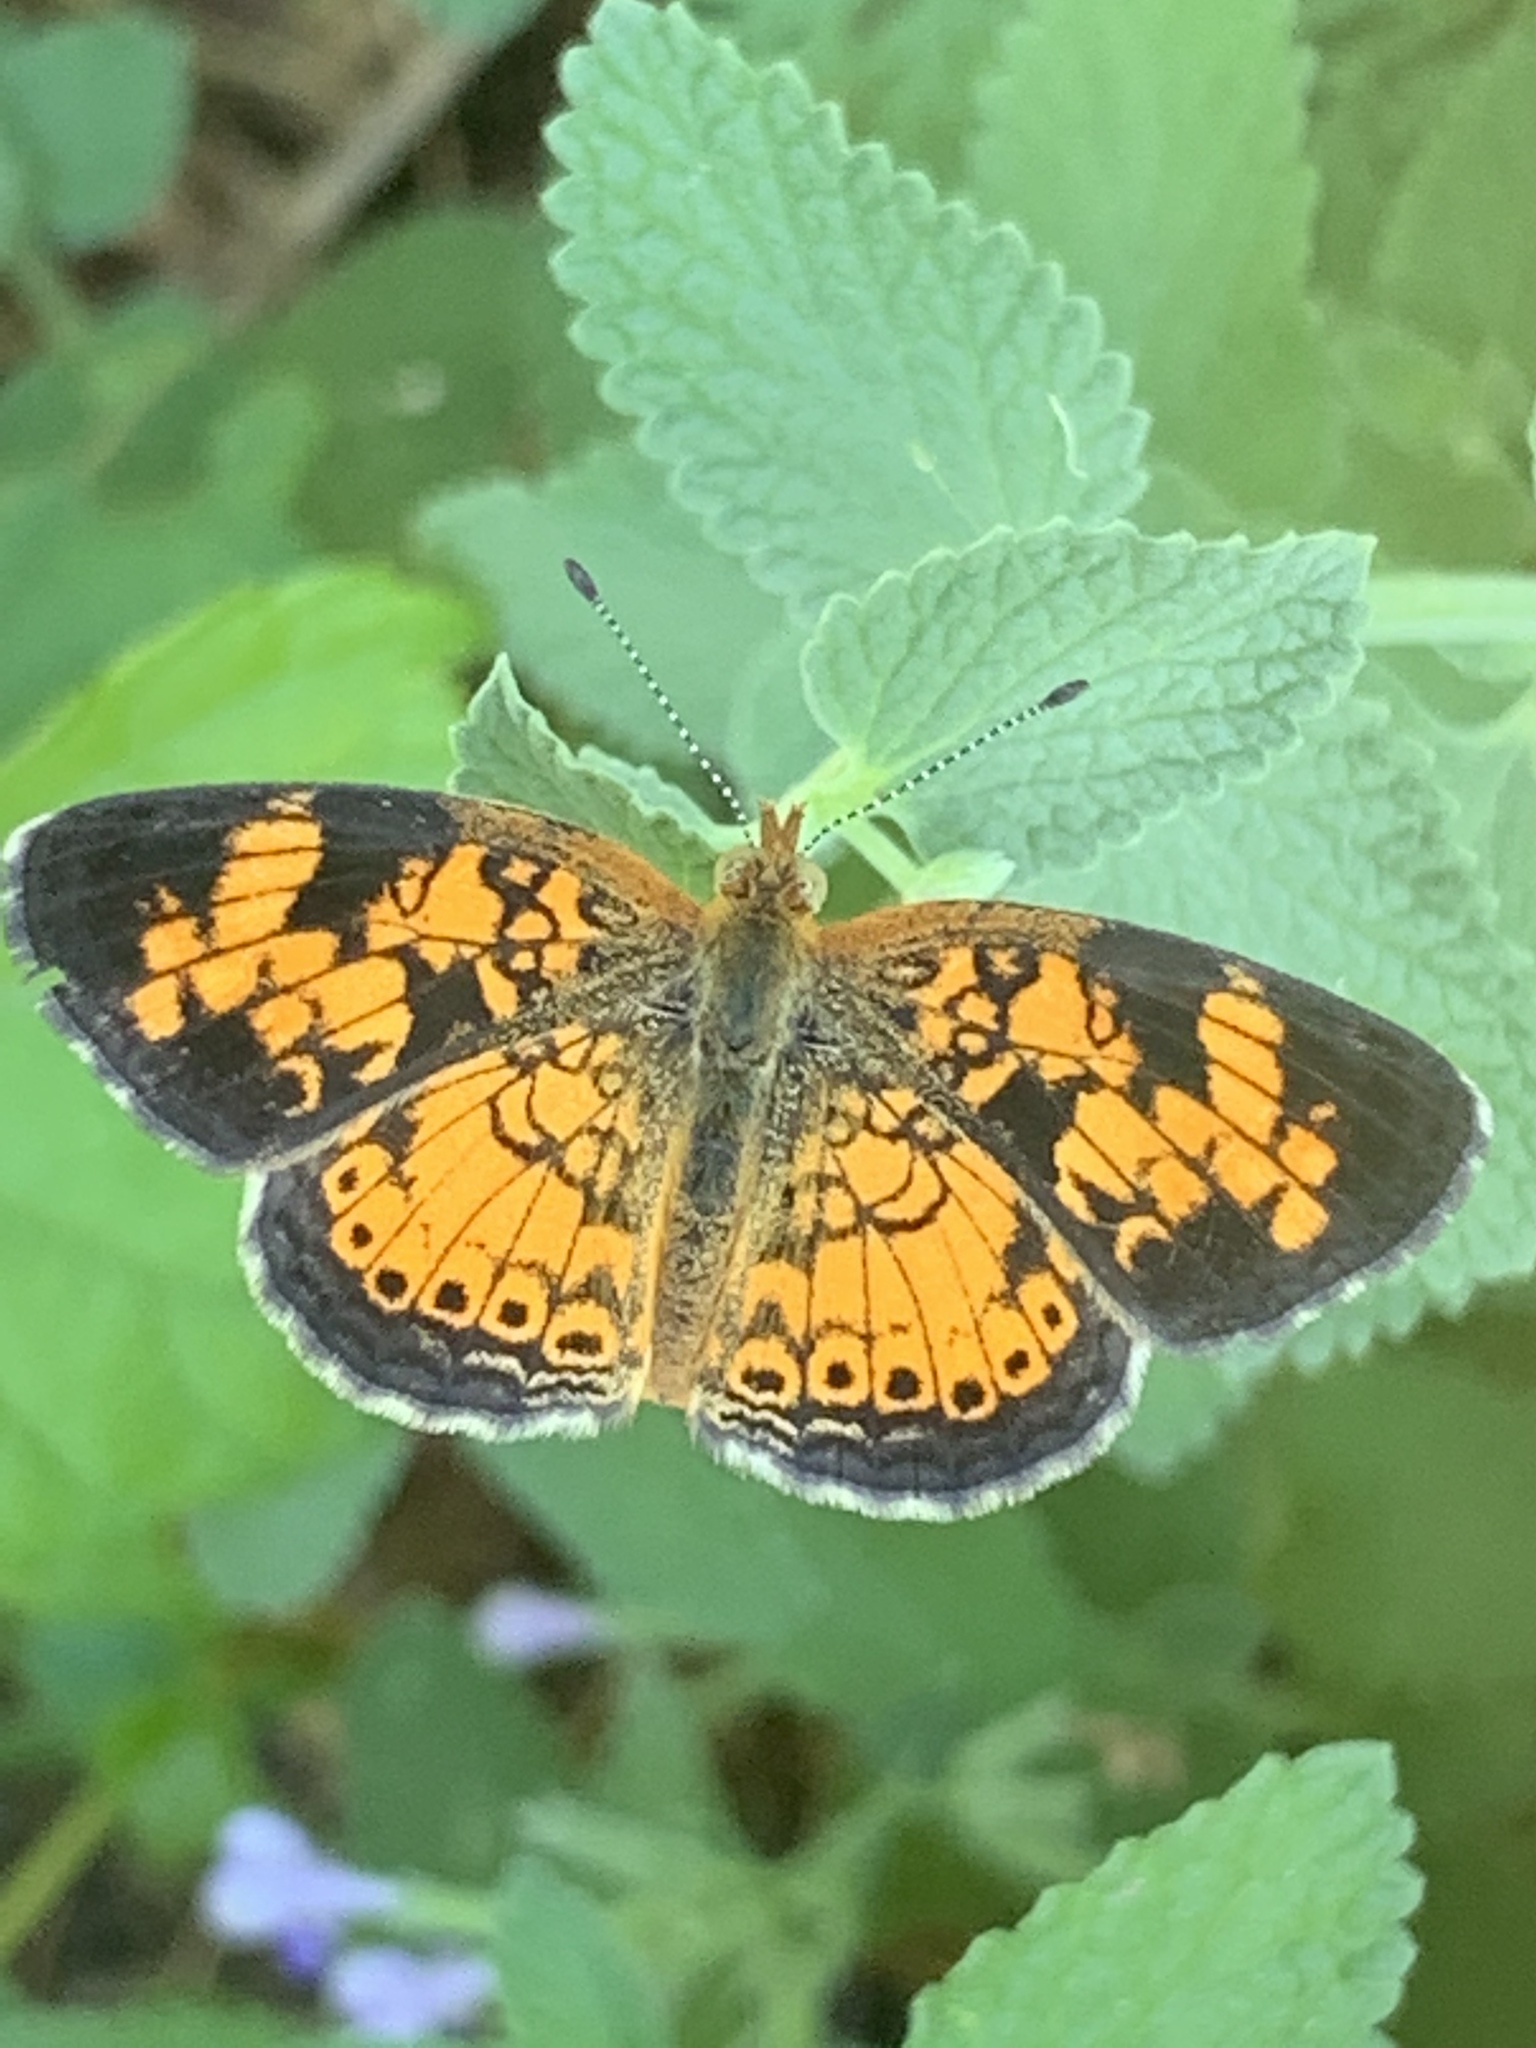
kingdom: Animalia
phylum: Arthropoda
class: Insecta
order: Lepidoptera
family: Nymphalidae
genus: Phyciodes
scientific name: Phyciodes tharos
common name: Pearl crescent
